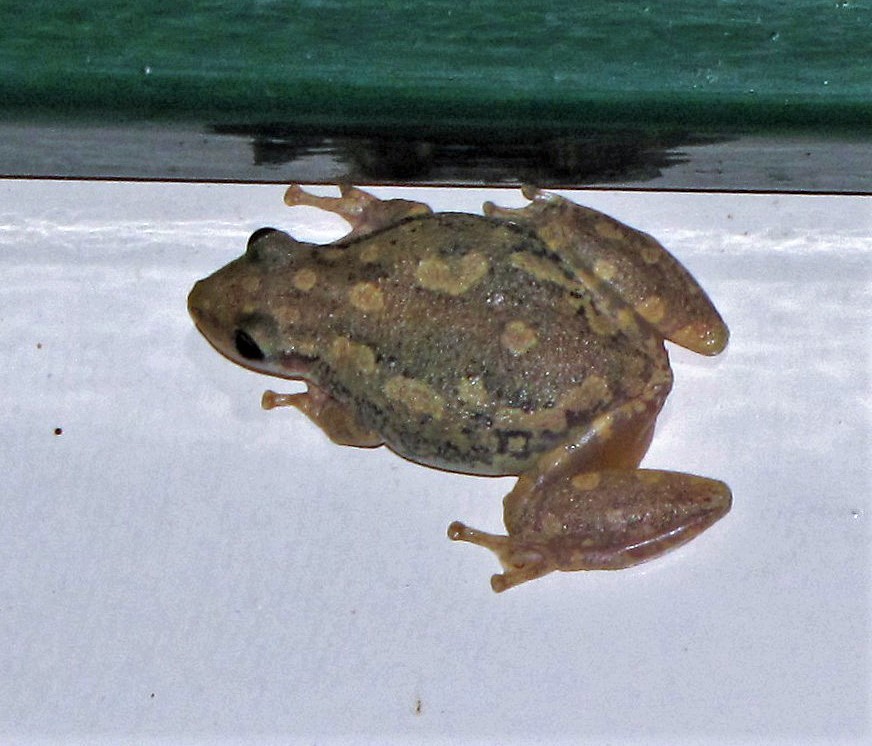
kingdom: Animalia
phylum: Chordata
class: Amphibia
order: Anura
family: Hylidae
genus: Scinax
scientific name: Scinax nasicus
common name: Lesser snouted treefrog
